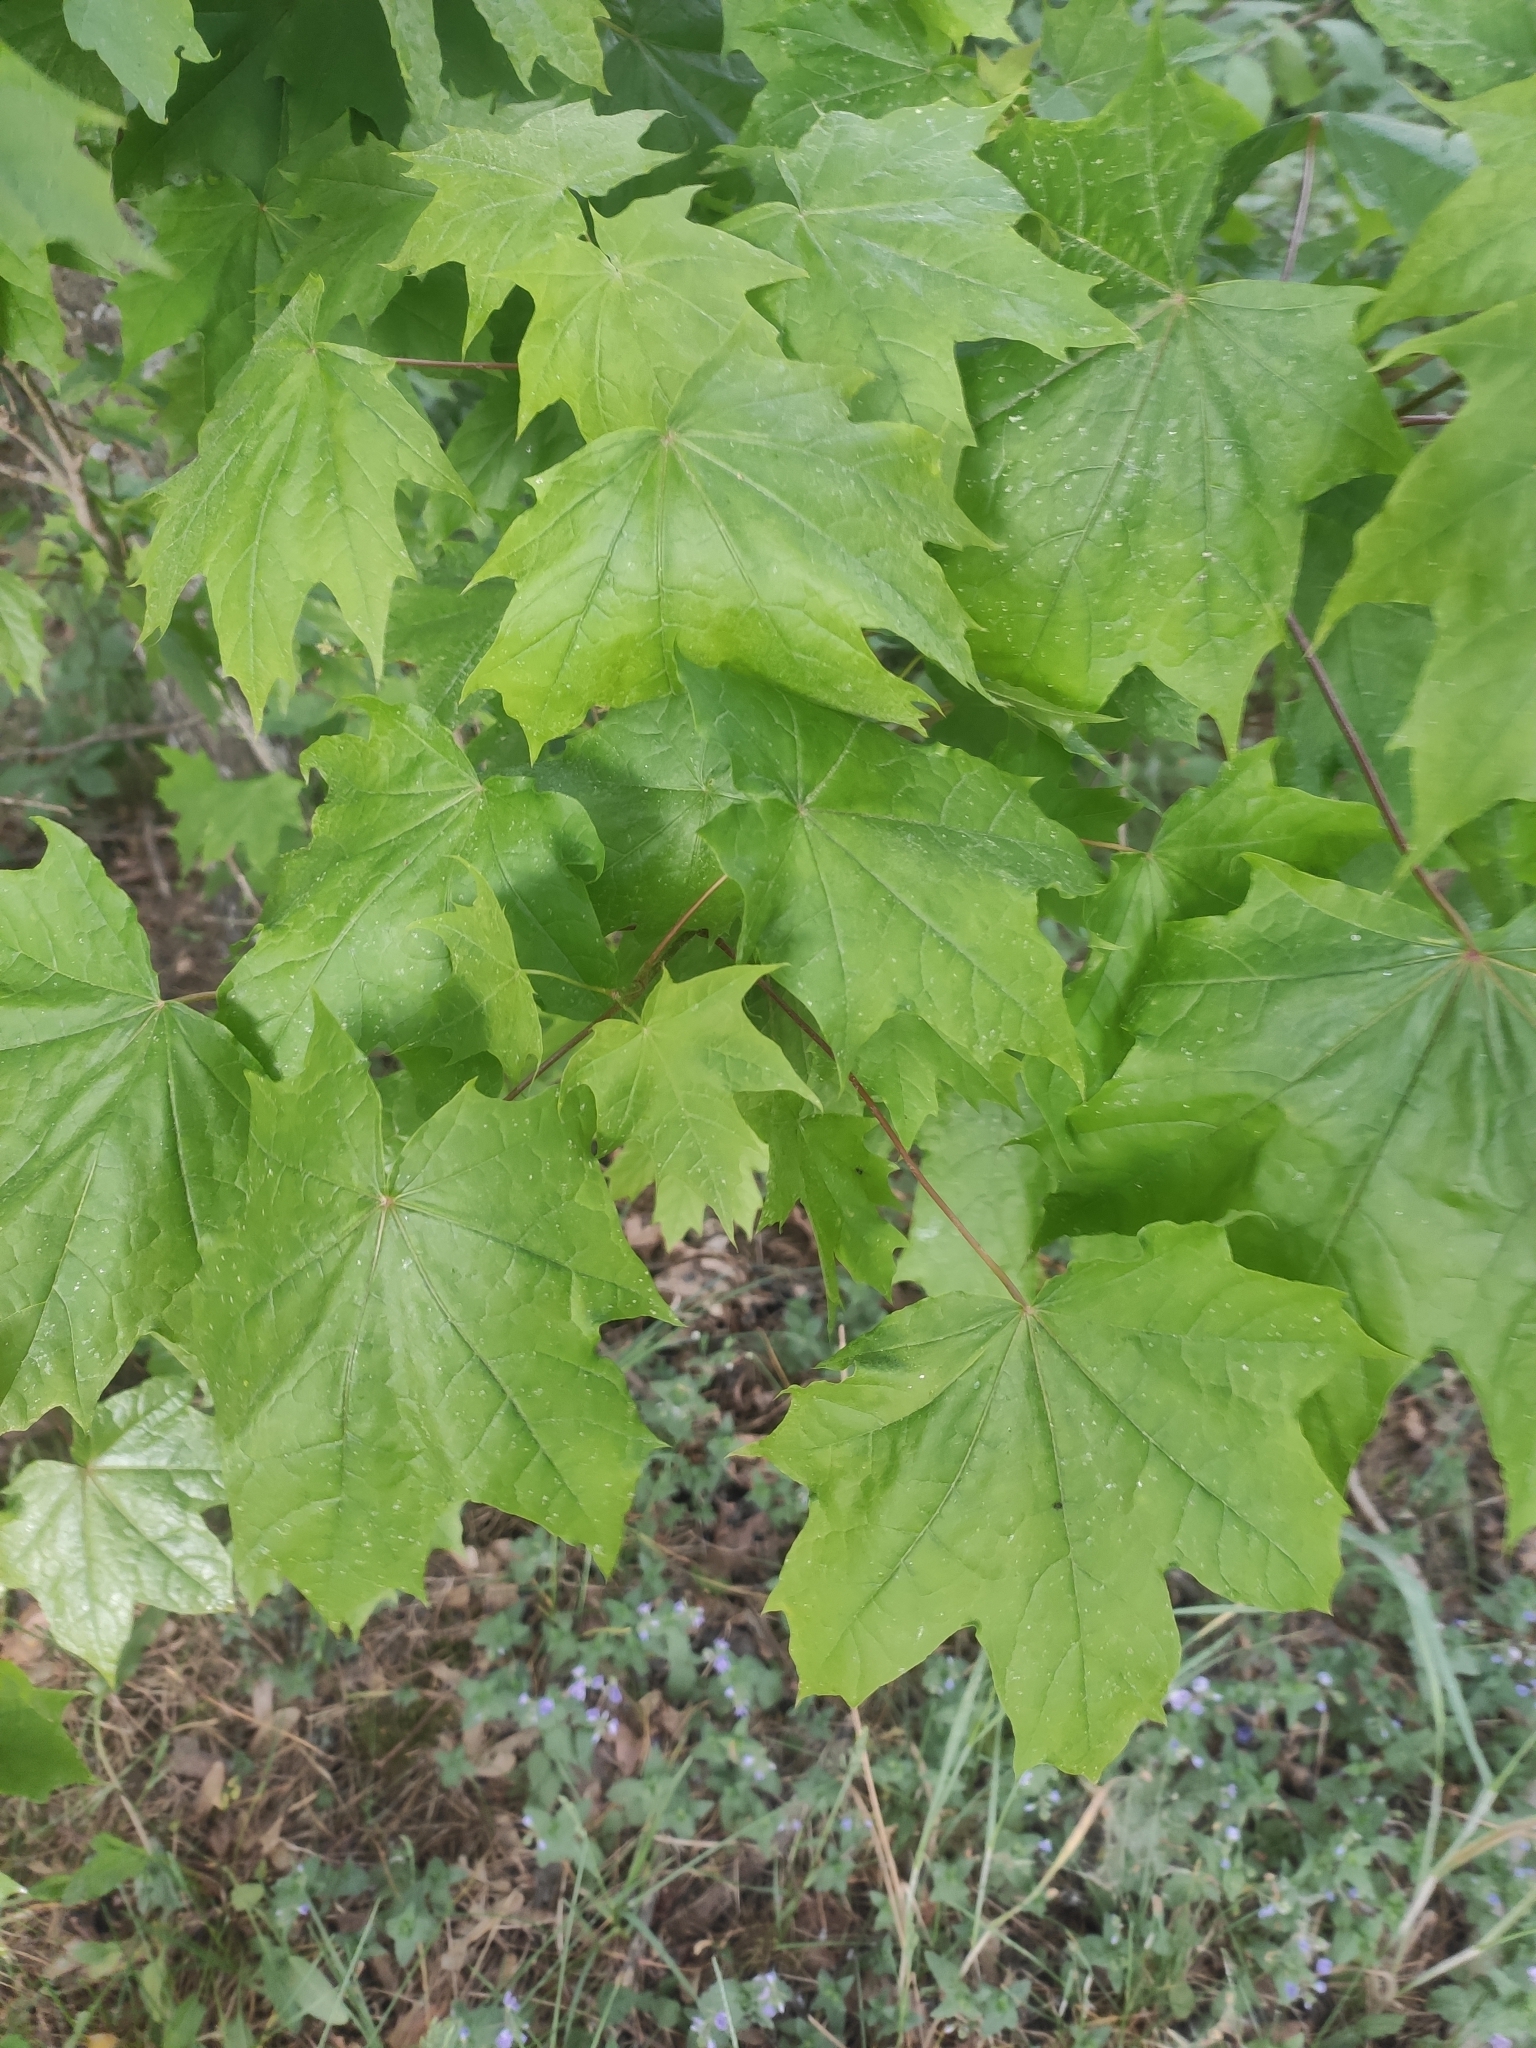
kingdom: Plantae
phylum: Tracheophyta
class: Magnoliopsida
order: Sapindales
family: Sapindaceae
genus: Acer
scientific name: Acer platanoides
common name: Norway maple
